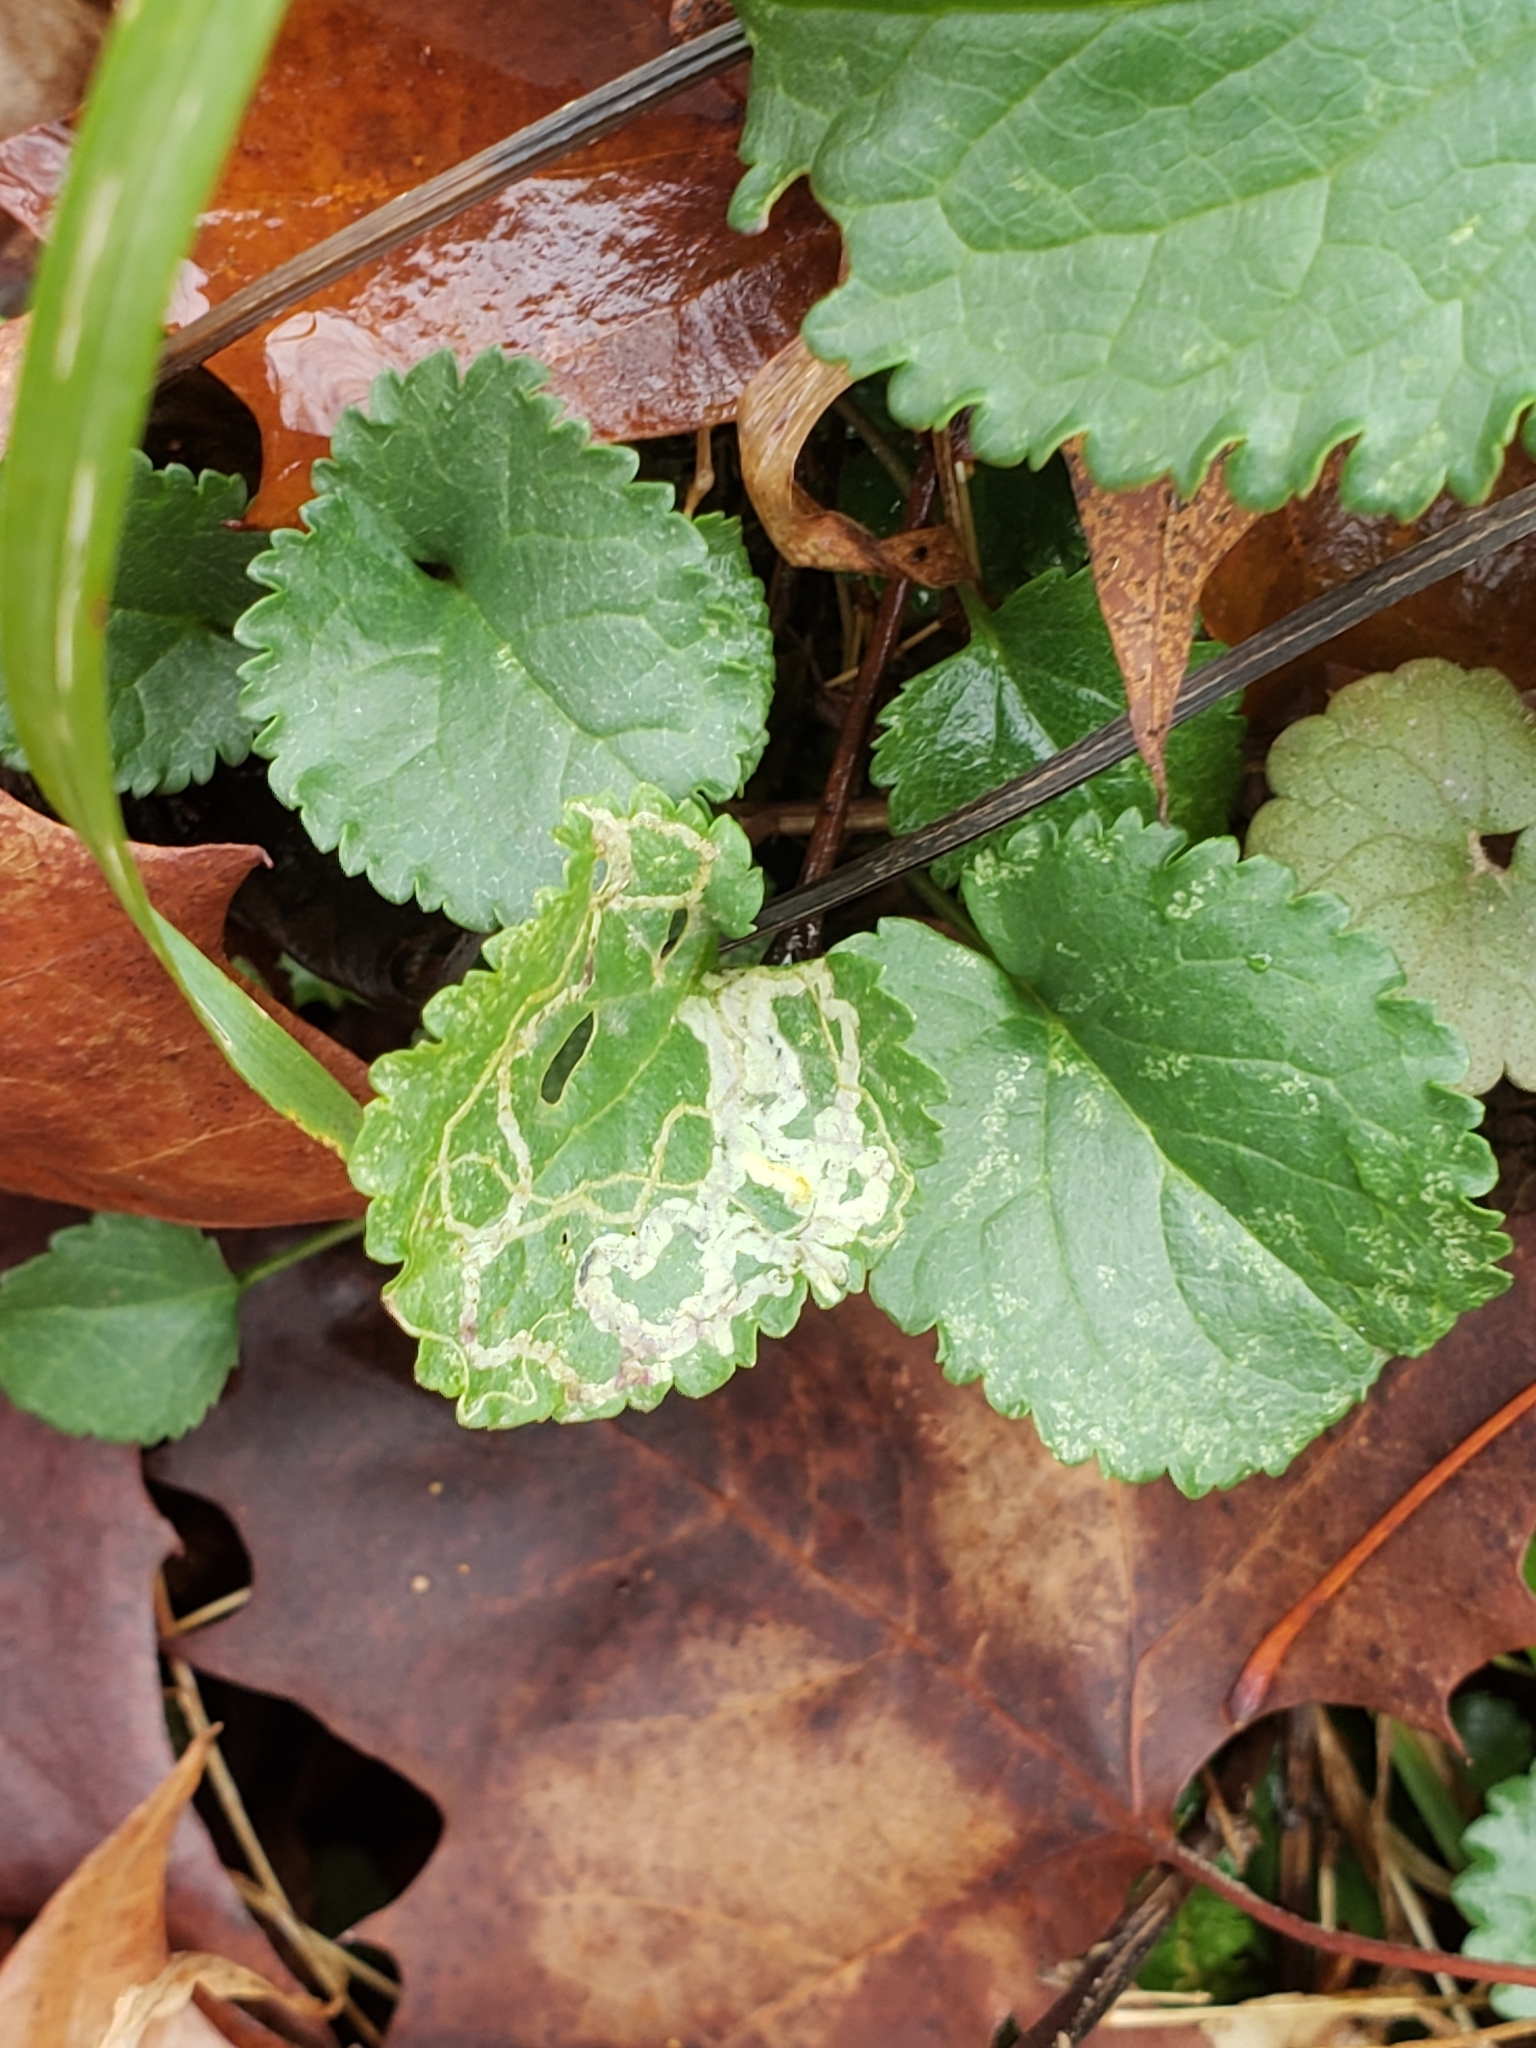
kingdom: Animalia
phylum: Arthropoda
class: Insecta
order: Lepidoptera
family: Gracillariidae
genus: Phyllocnistis
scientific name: Phyllocnistis insignis
